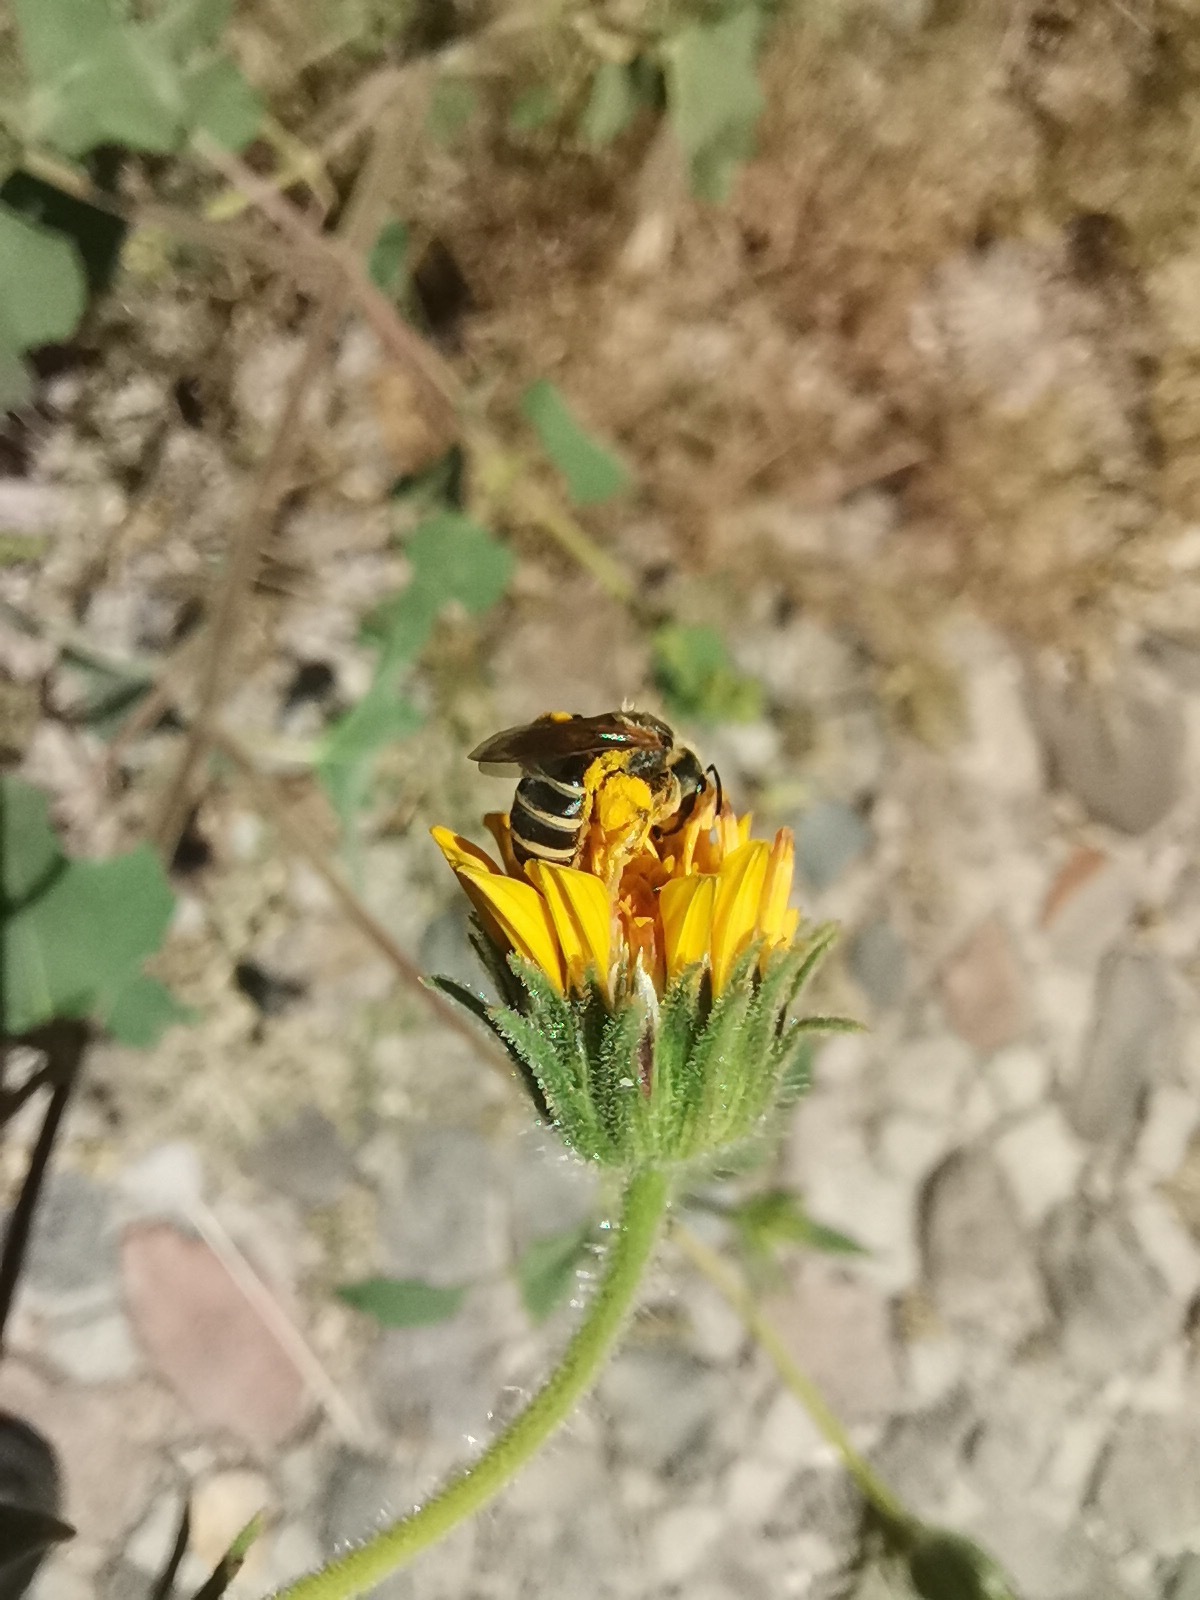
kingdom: Animalia
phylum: Arthropoda
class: Insecta
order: Hymenoptera
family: Halictidae
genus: Halictus
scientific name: Halictus ligatus
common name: Ligated furrow bee
